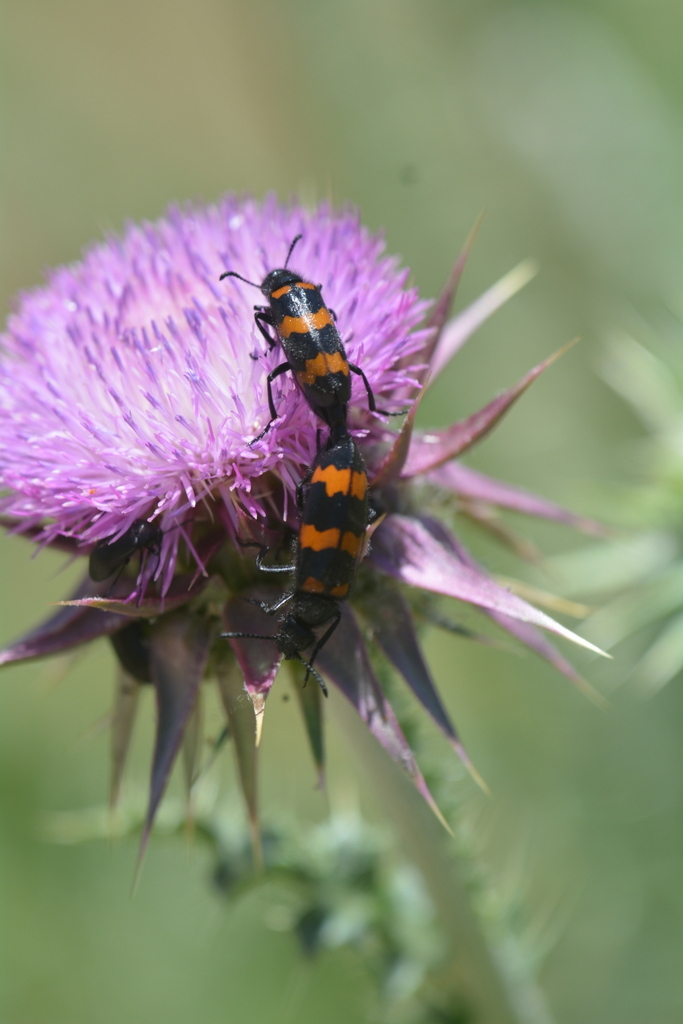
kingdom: Animalia
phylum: Arthropoda
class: Insecta
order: Coleoptera
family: Meloidae
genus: Mylabris
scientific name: Mylabris variabilis
